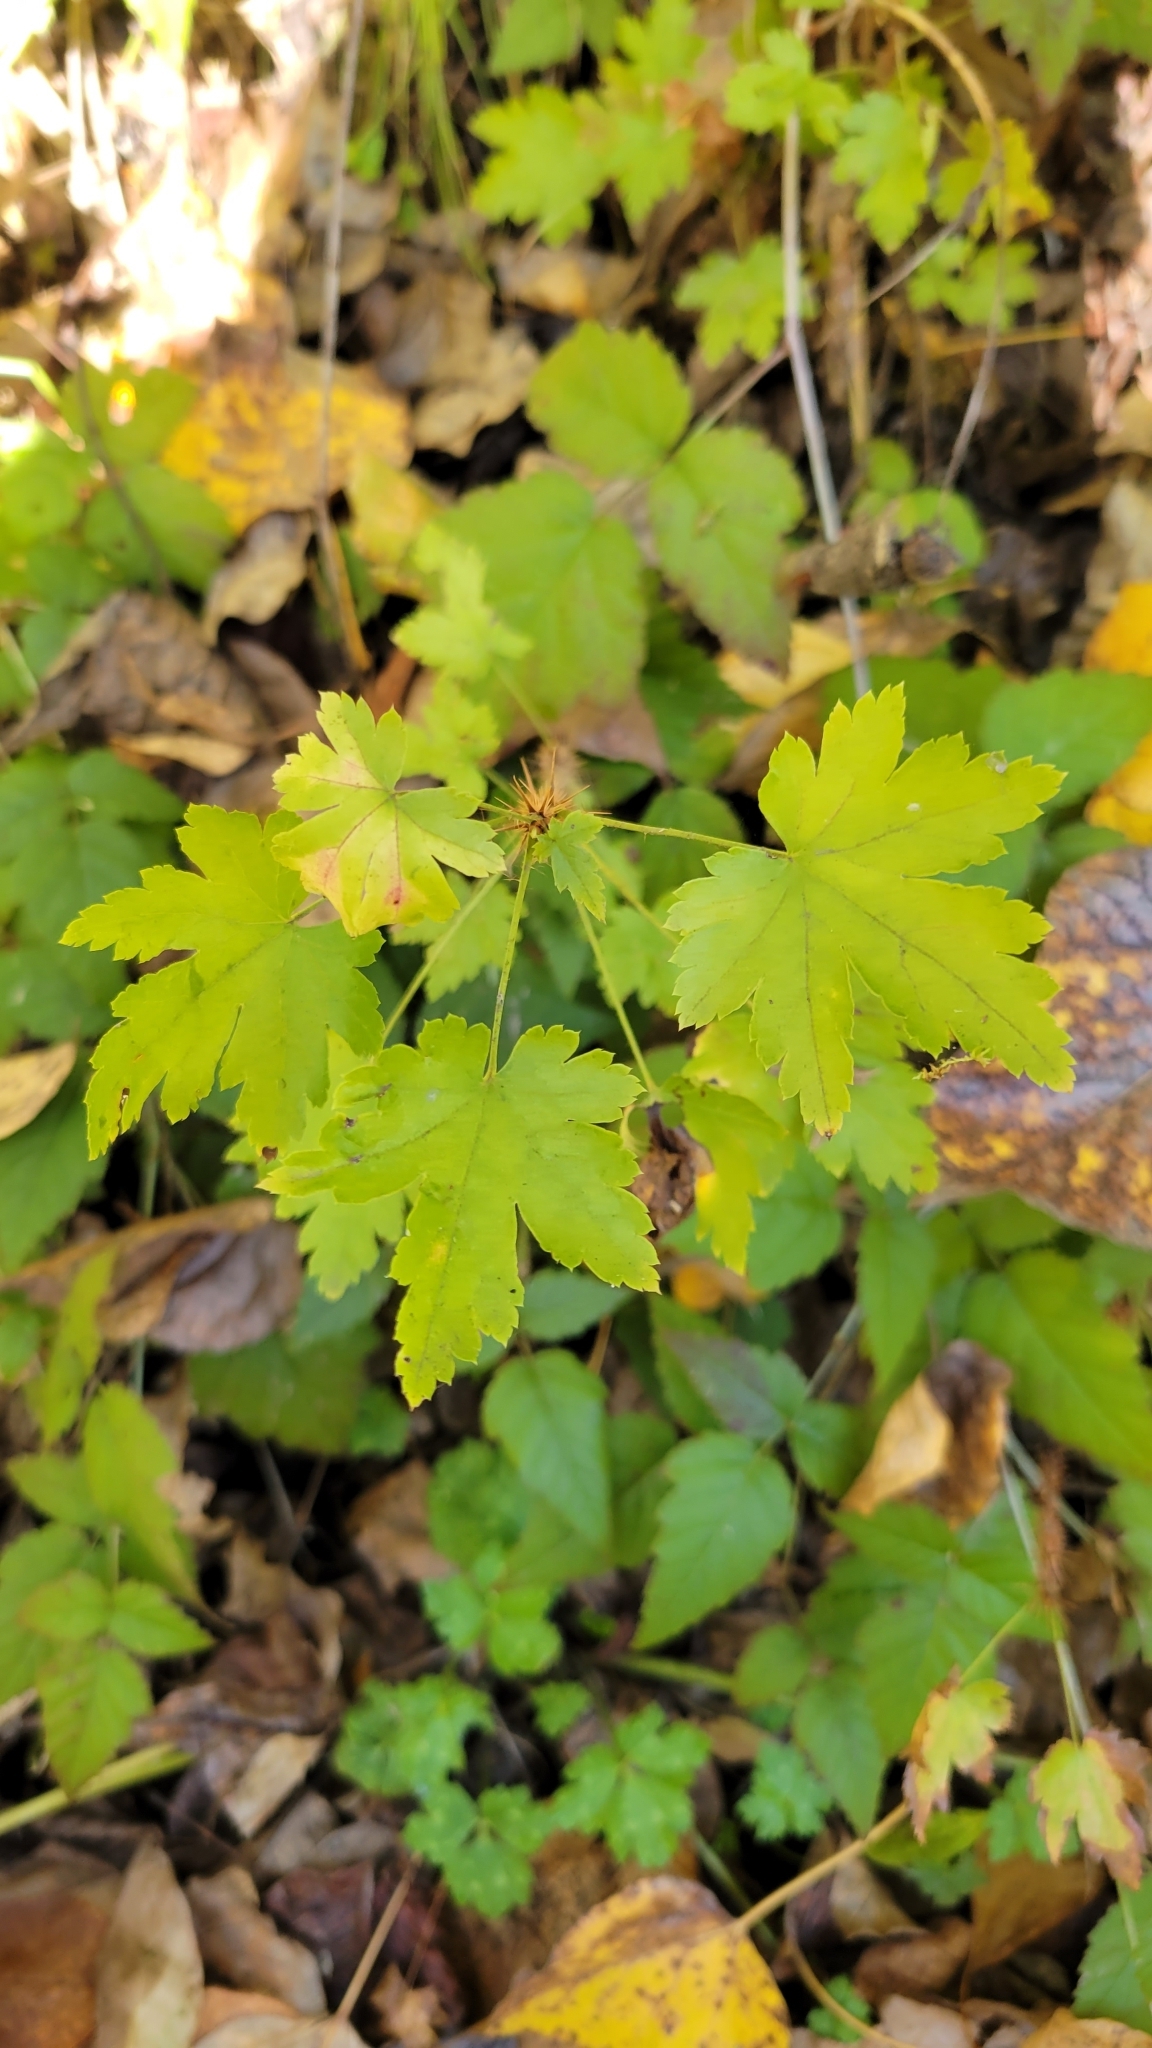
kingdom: Plantae
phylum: Tracheophyta
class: Magnoliopsida
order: Saxifragales
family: Grossulariaceae
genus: Ribes
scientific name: Ribes lacustre
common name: Black gooseberry
